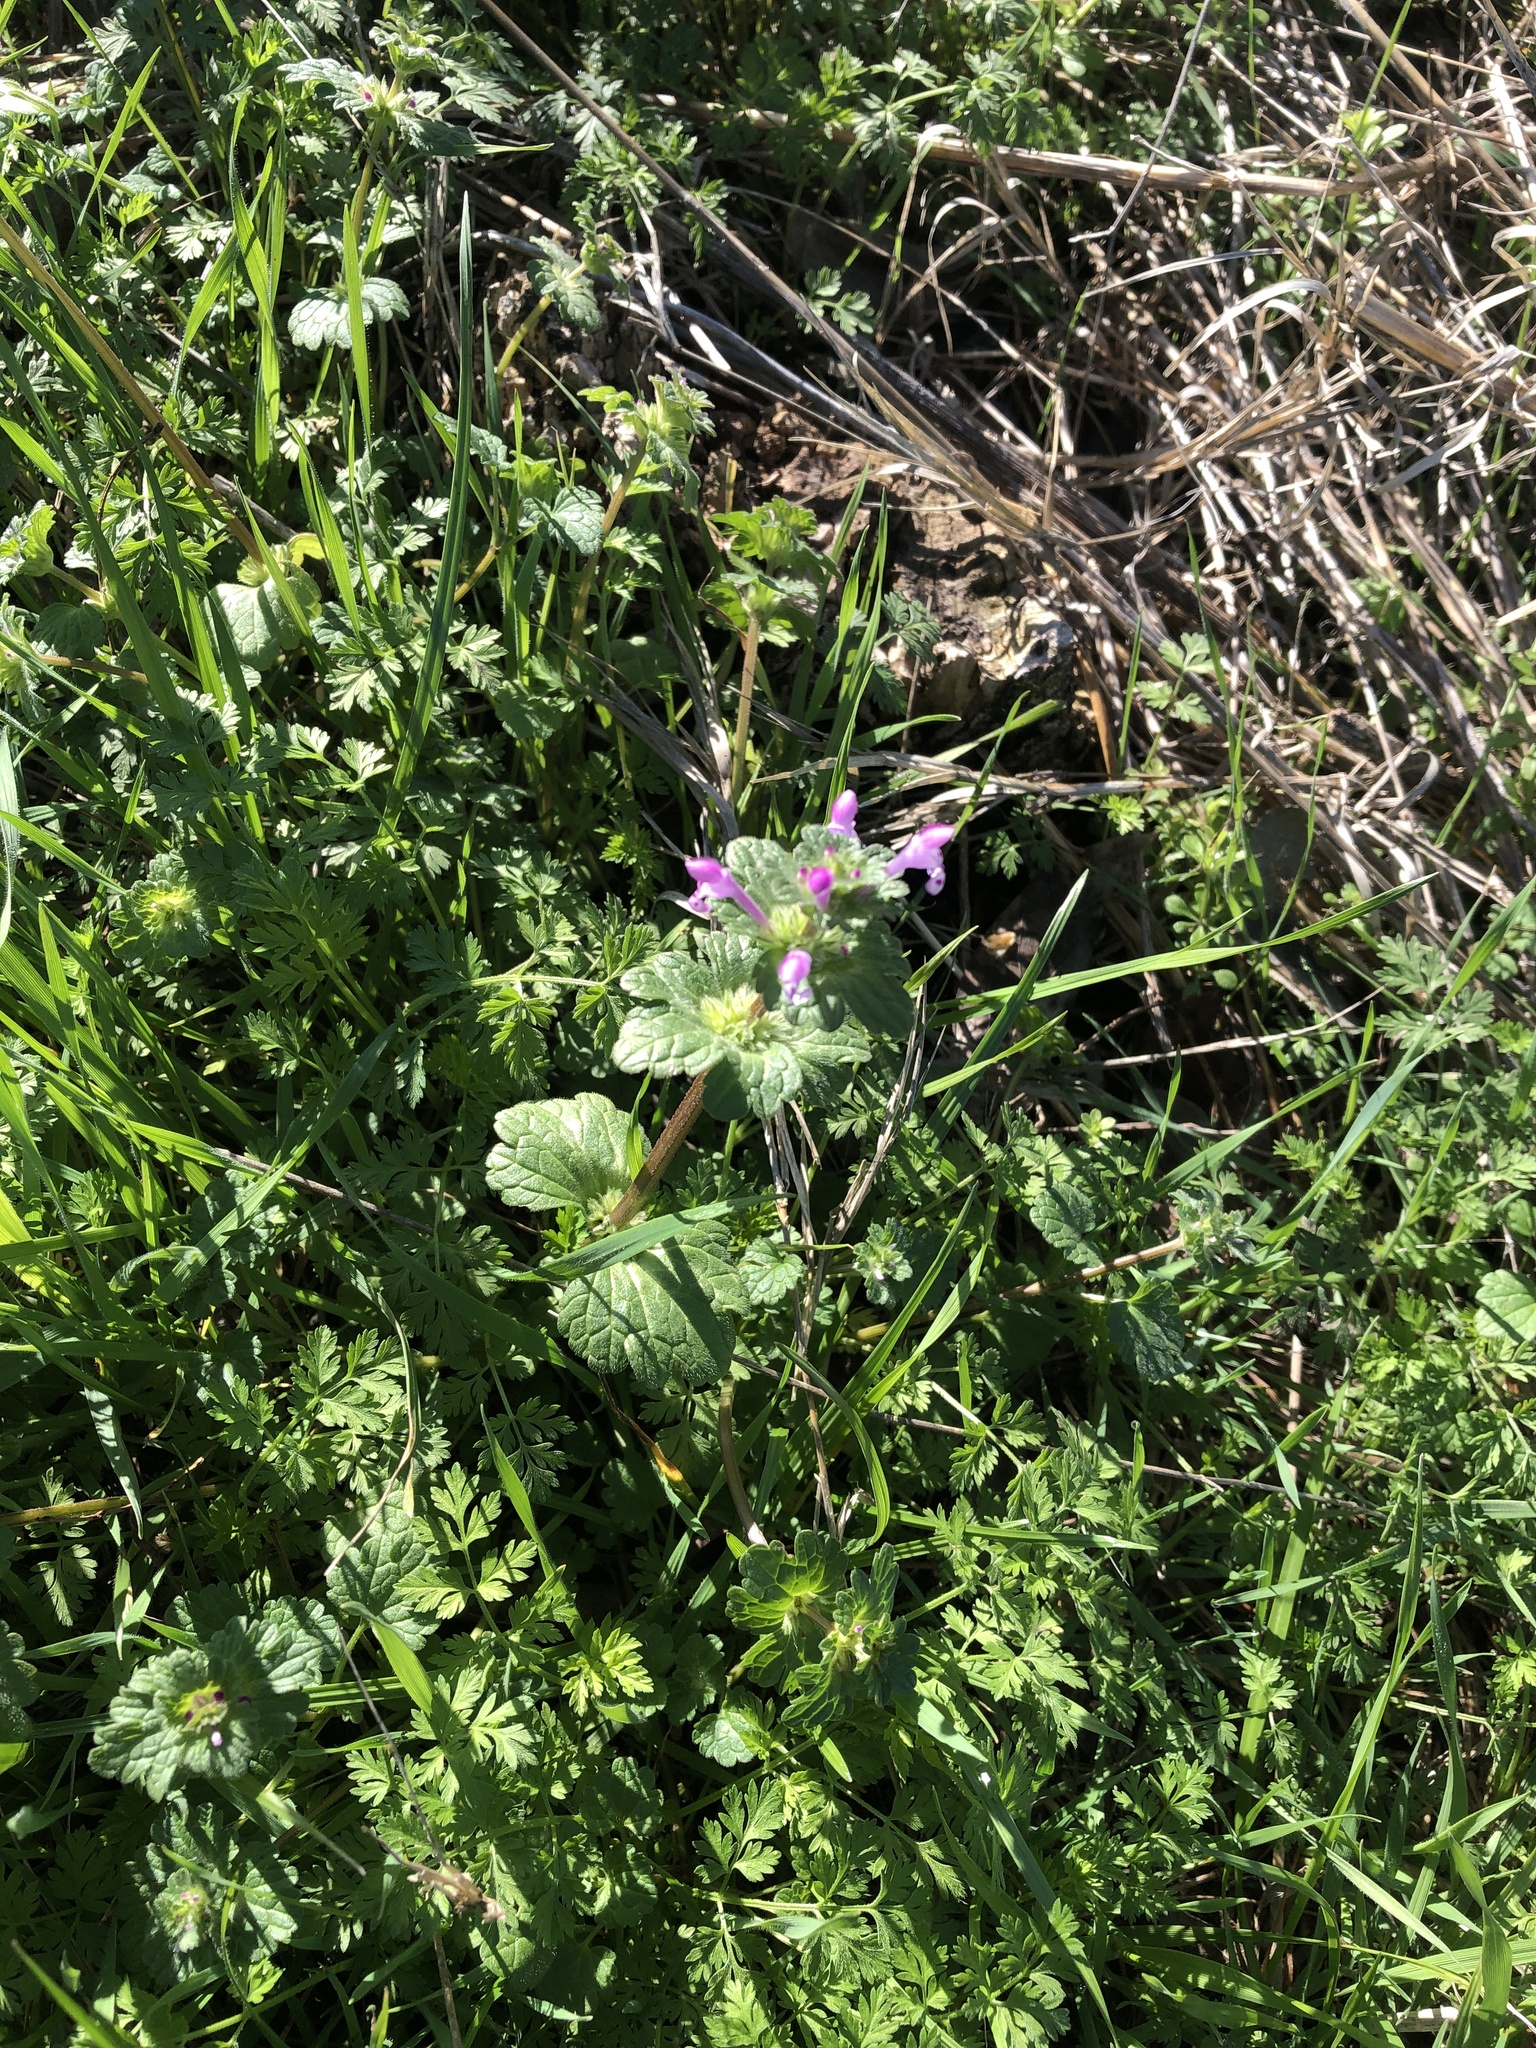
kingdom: Plantae
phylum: Tracheophyta
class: Magnoliopsida
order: Lamiales
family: Lamiaceae
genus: Lamium
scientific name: Lamium amplexicaule
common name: Henbit dead-nettle
